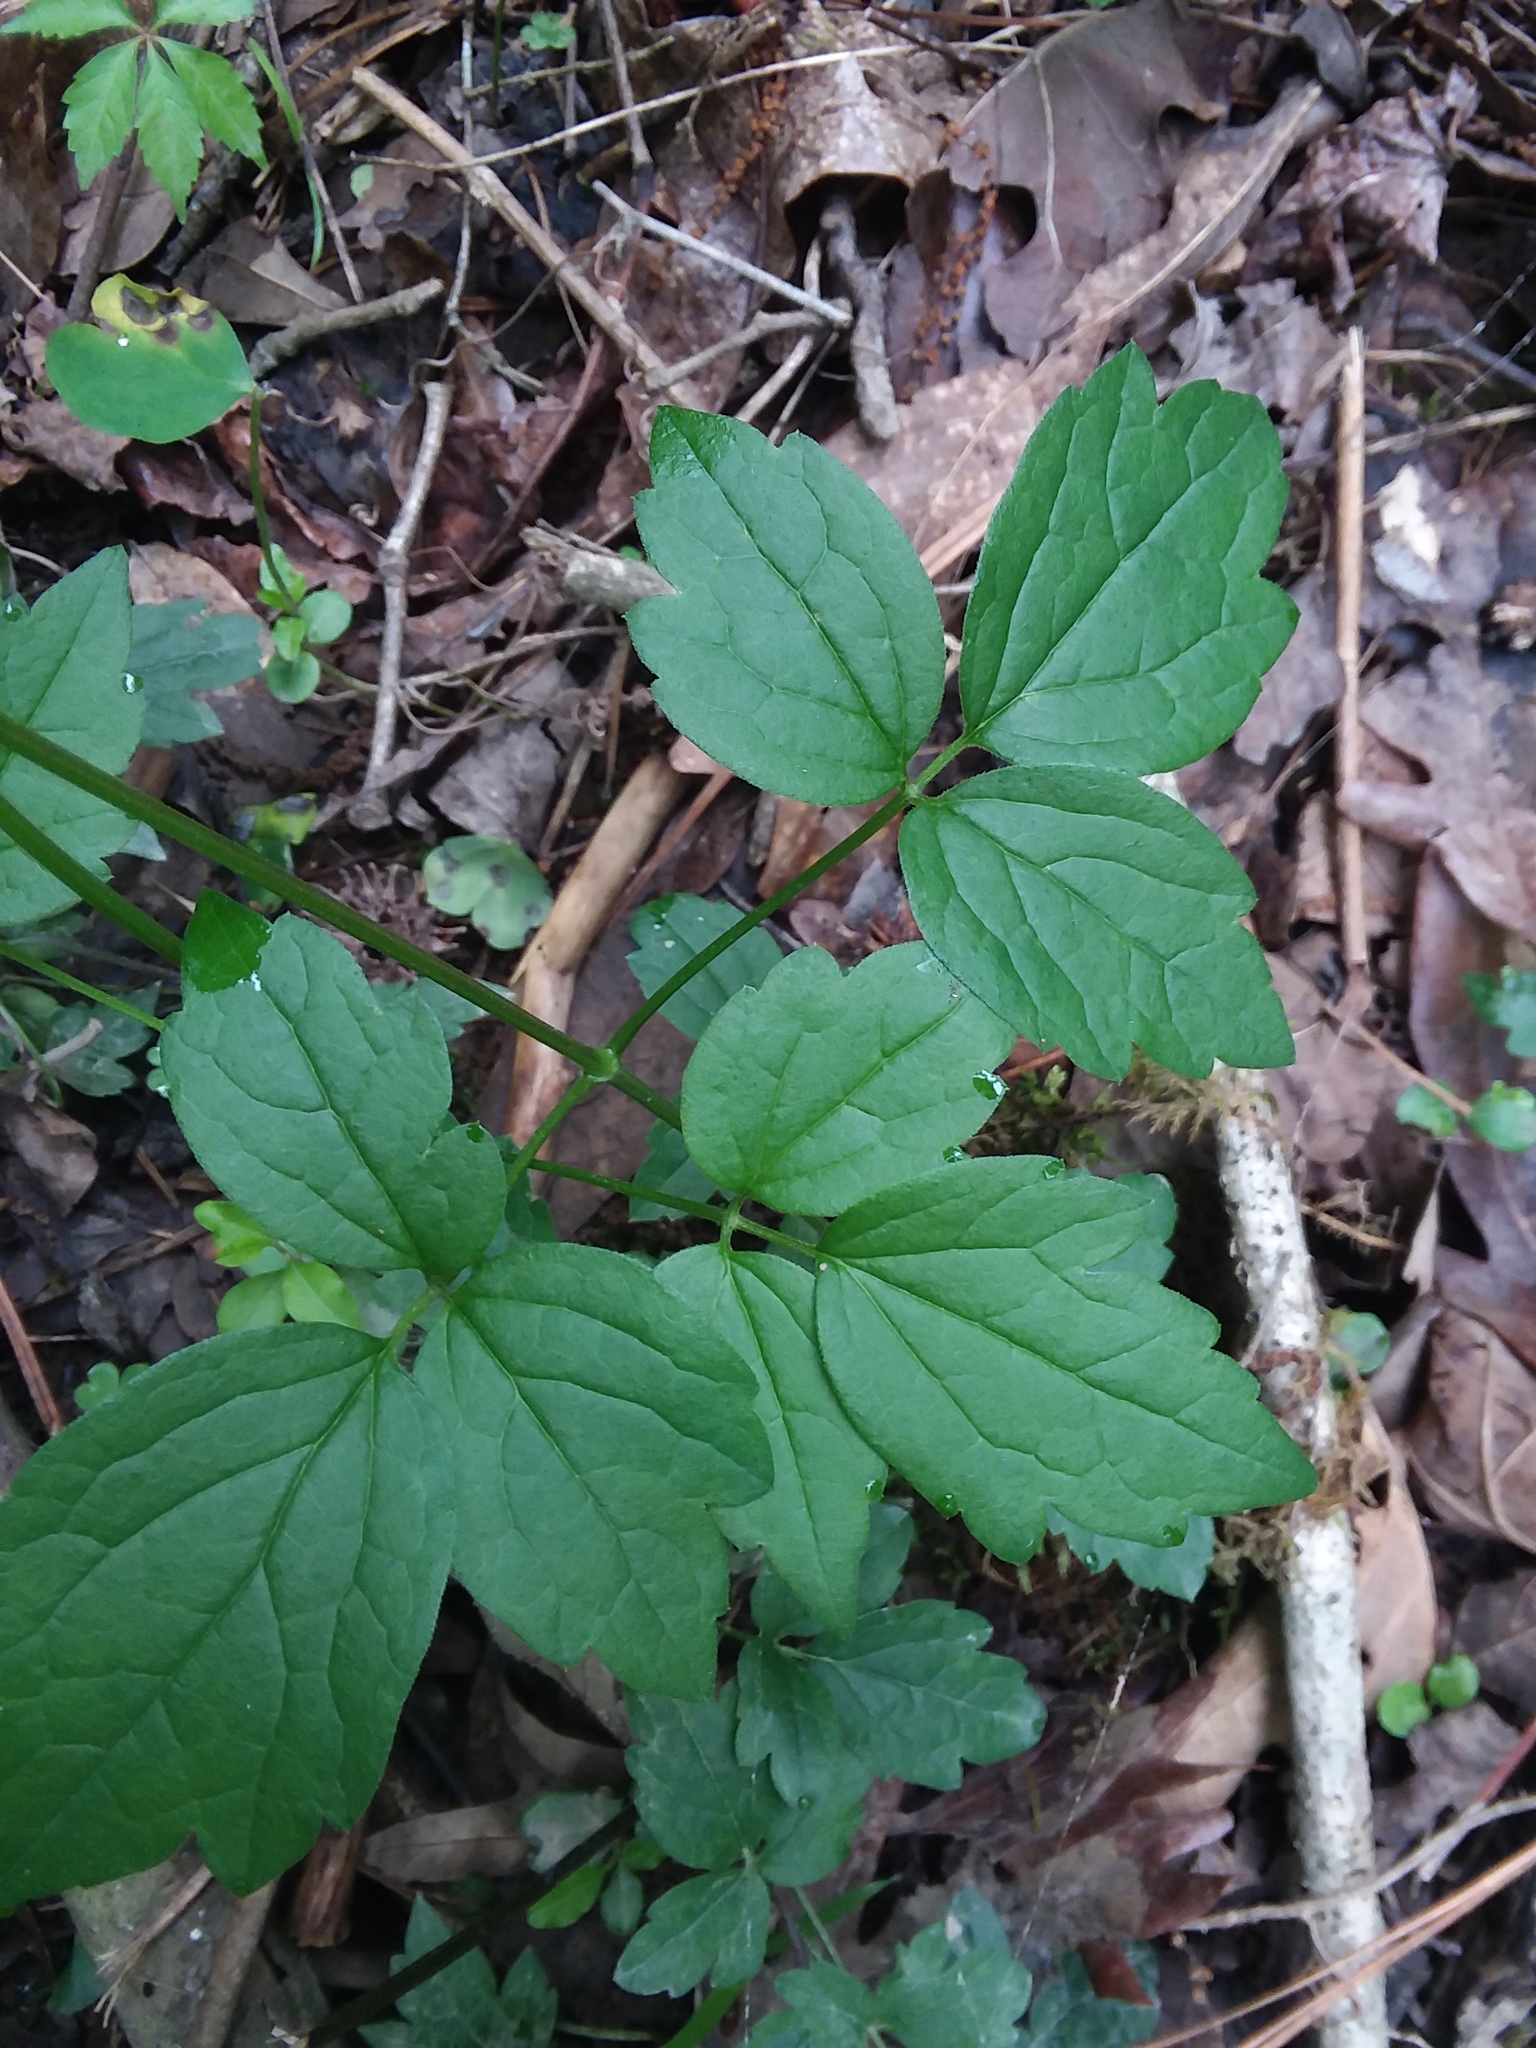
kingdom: Plantae
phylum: Tracheophyta
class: Magnoliopsida
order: Ranunculales
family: Ranunculaceae
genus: Clematis
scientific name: Clematis virginiana
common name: Virgin's-bower
